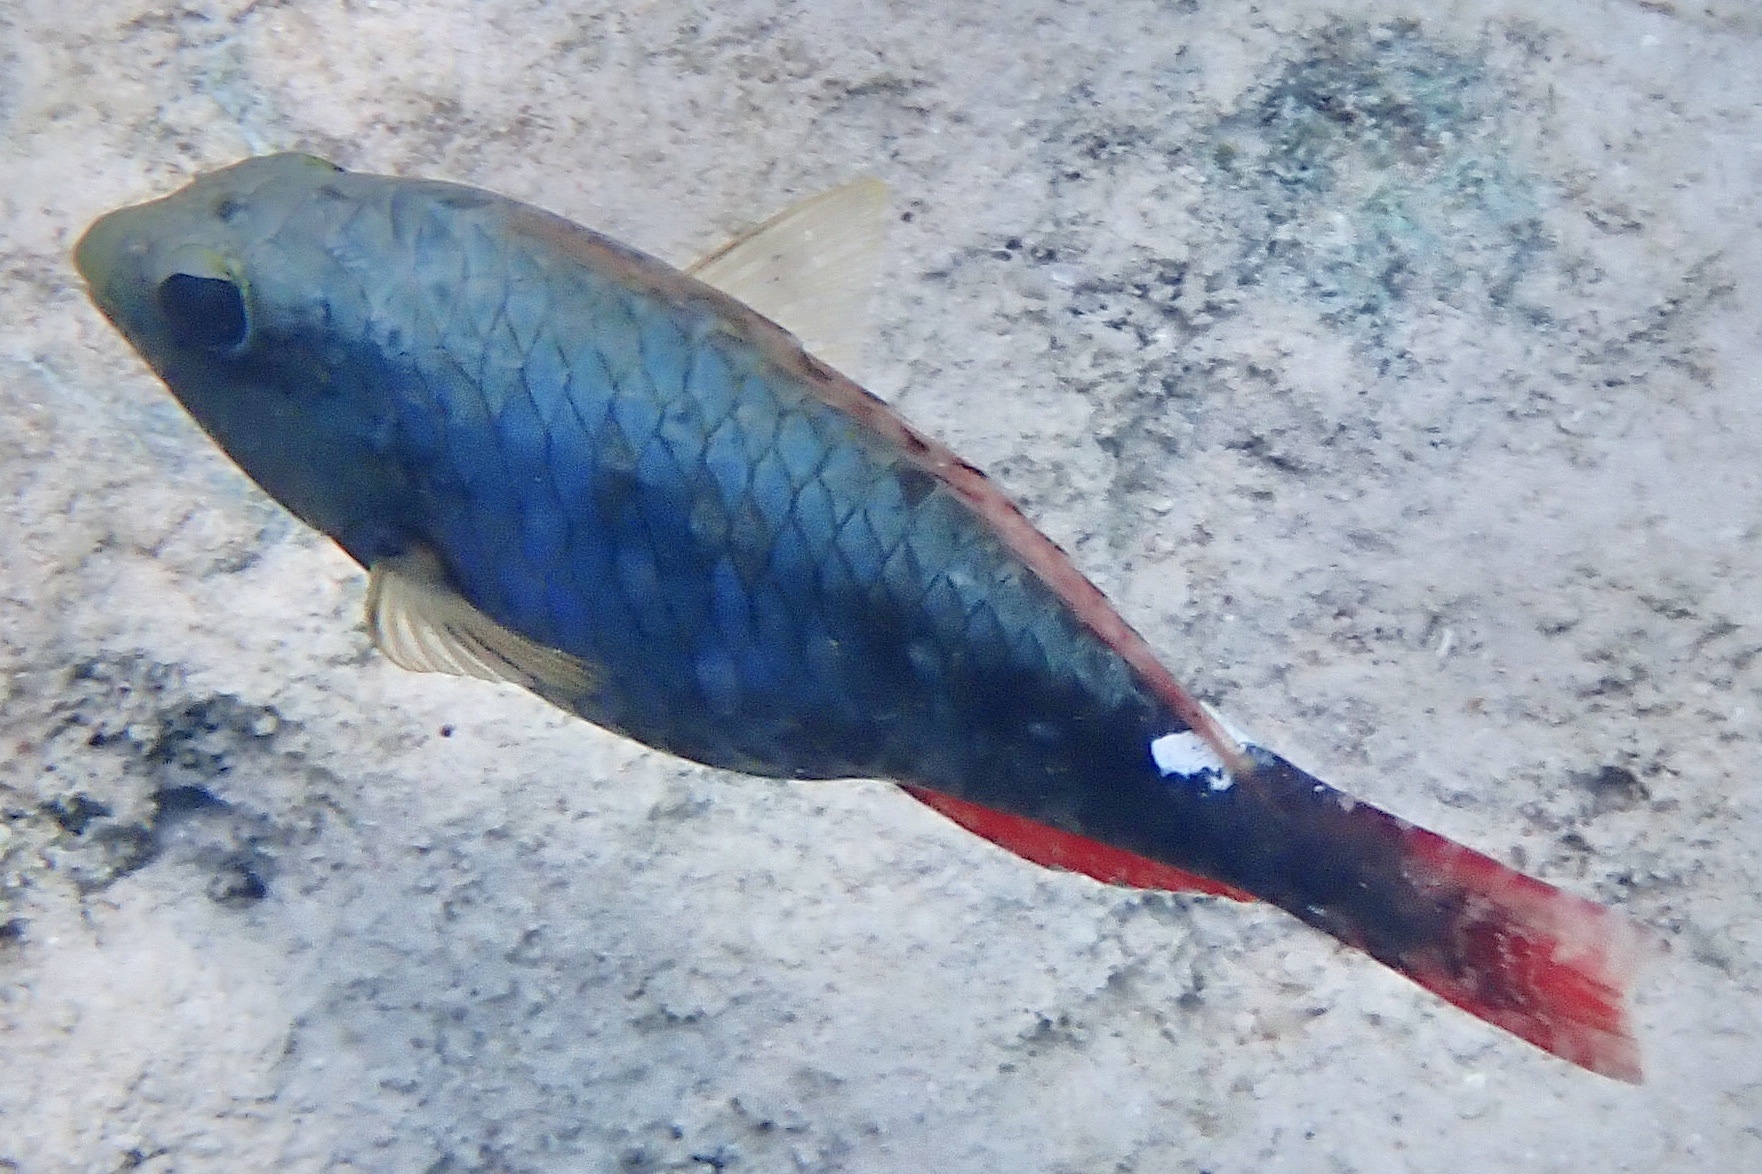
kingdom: Animalia
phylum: Chordata
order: Perciformes
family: Scaridae
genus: Sparisoma
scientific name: Sparisoma aurofrenatum
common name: Redband parrotfish
